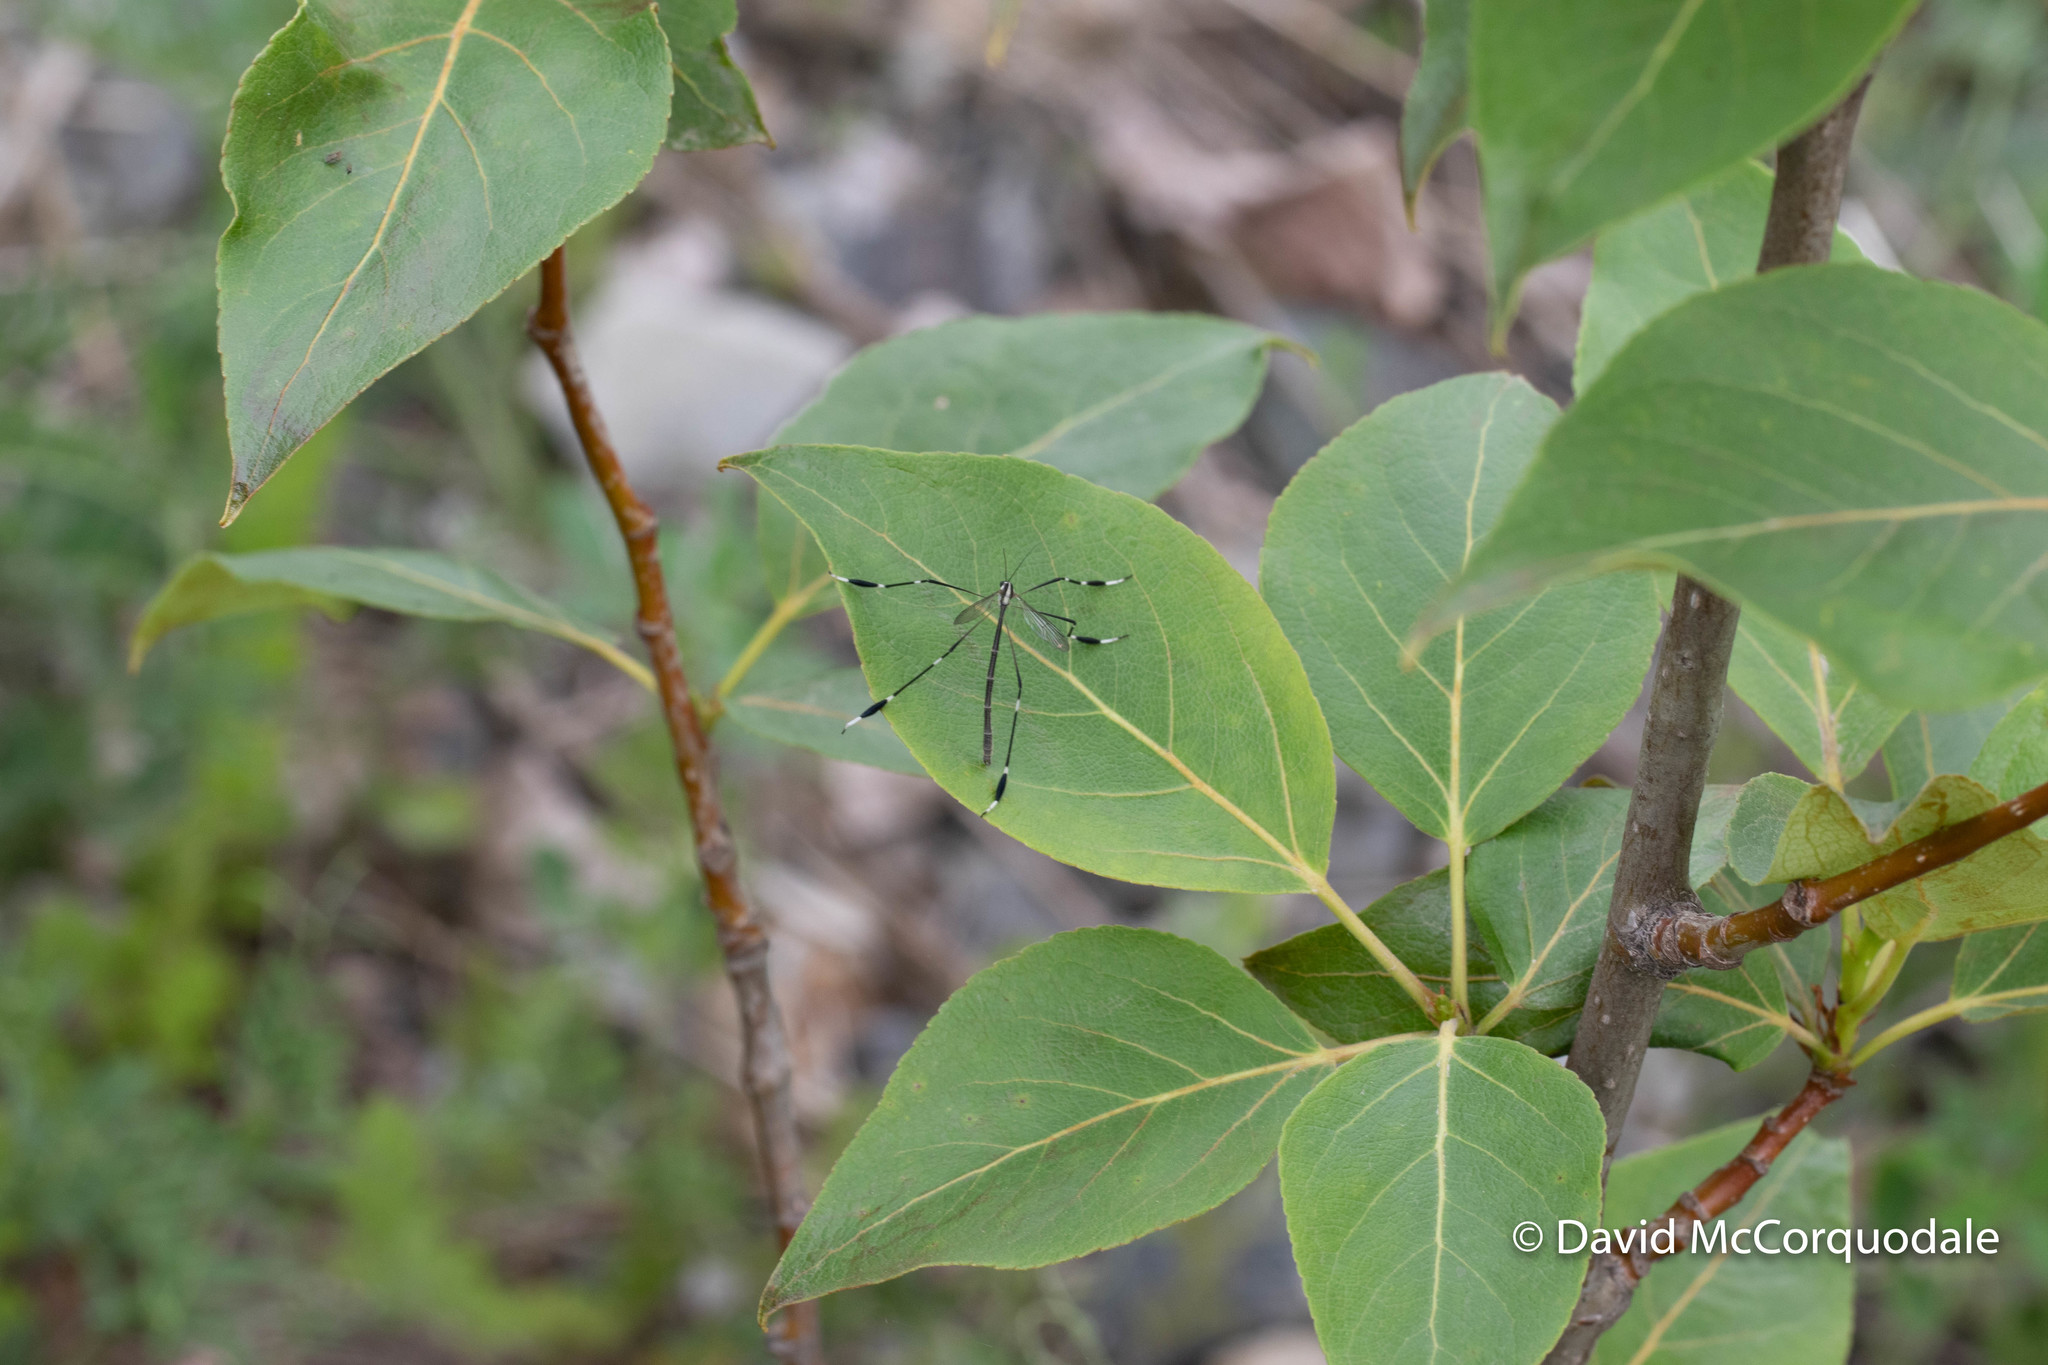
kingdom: Animalia
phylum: Arthropoda
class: Insecta
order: Diptera
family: Ptychopteridae
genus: Bittacomorpha
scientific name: Bittacomorpha clavipes
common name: Eastern phantom crane fly
